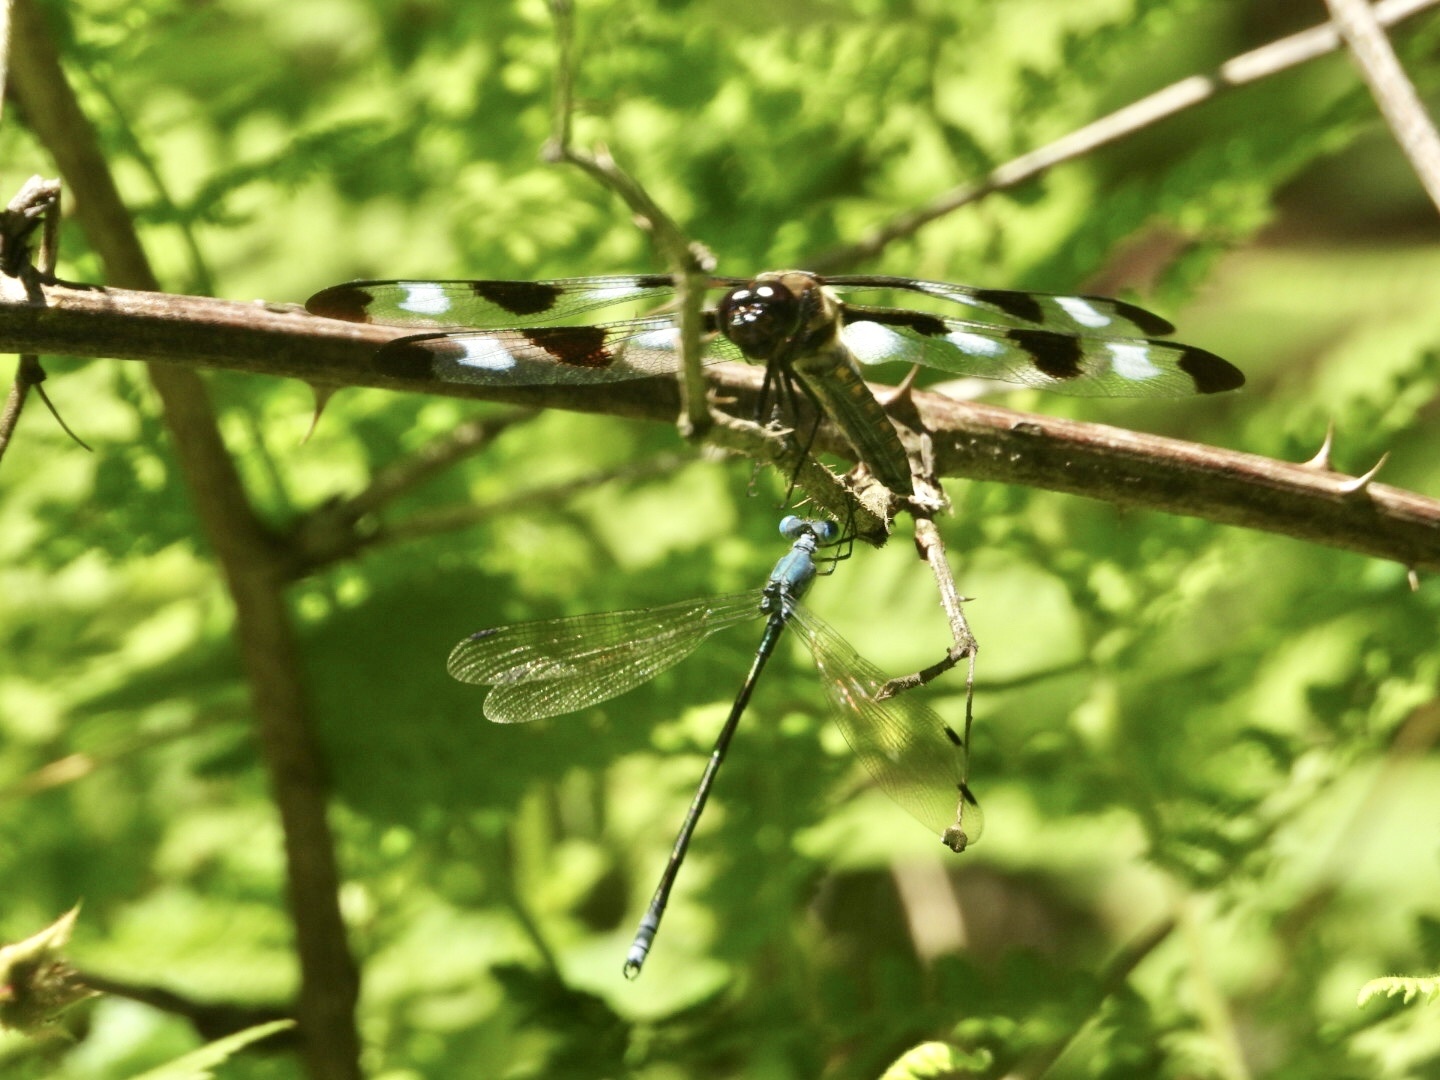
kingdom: Animalia
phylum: Arthropoda
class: Insecta
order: Odonata
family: Lestidae
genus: Lestes
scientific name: Lestes eurinus
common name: Amber-winged spreadwing
